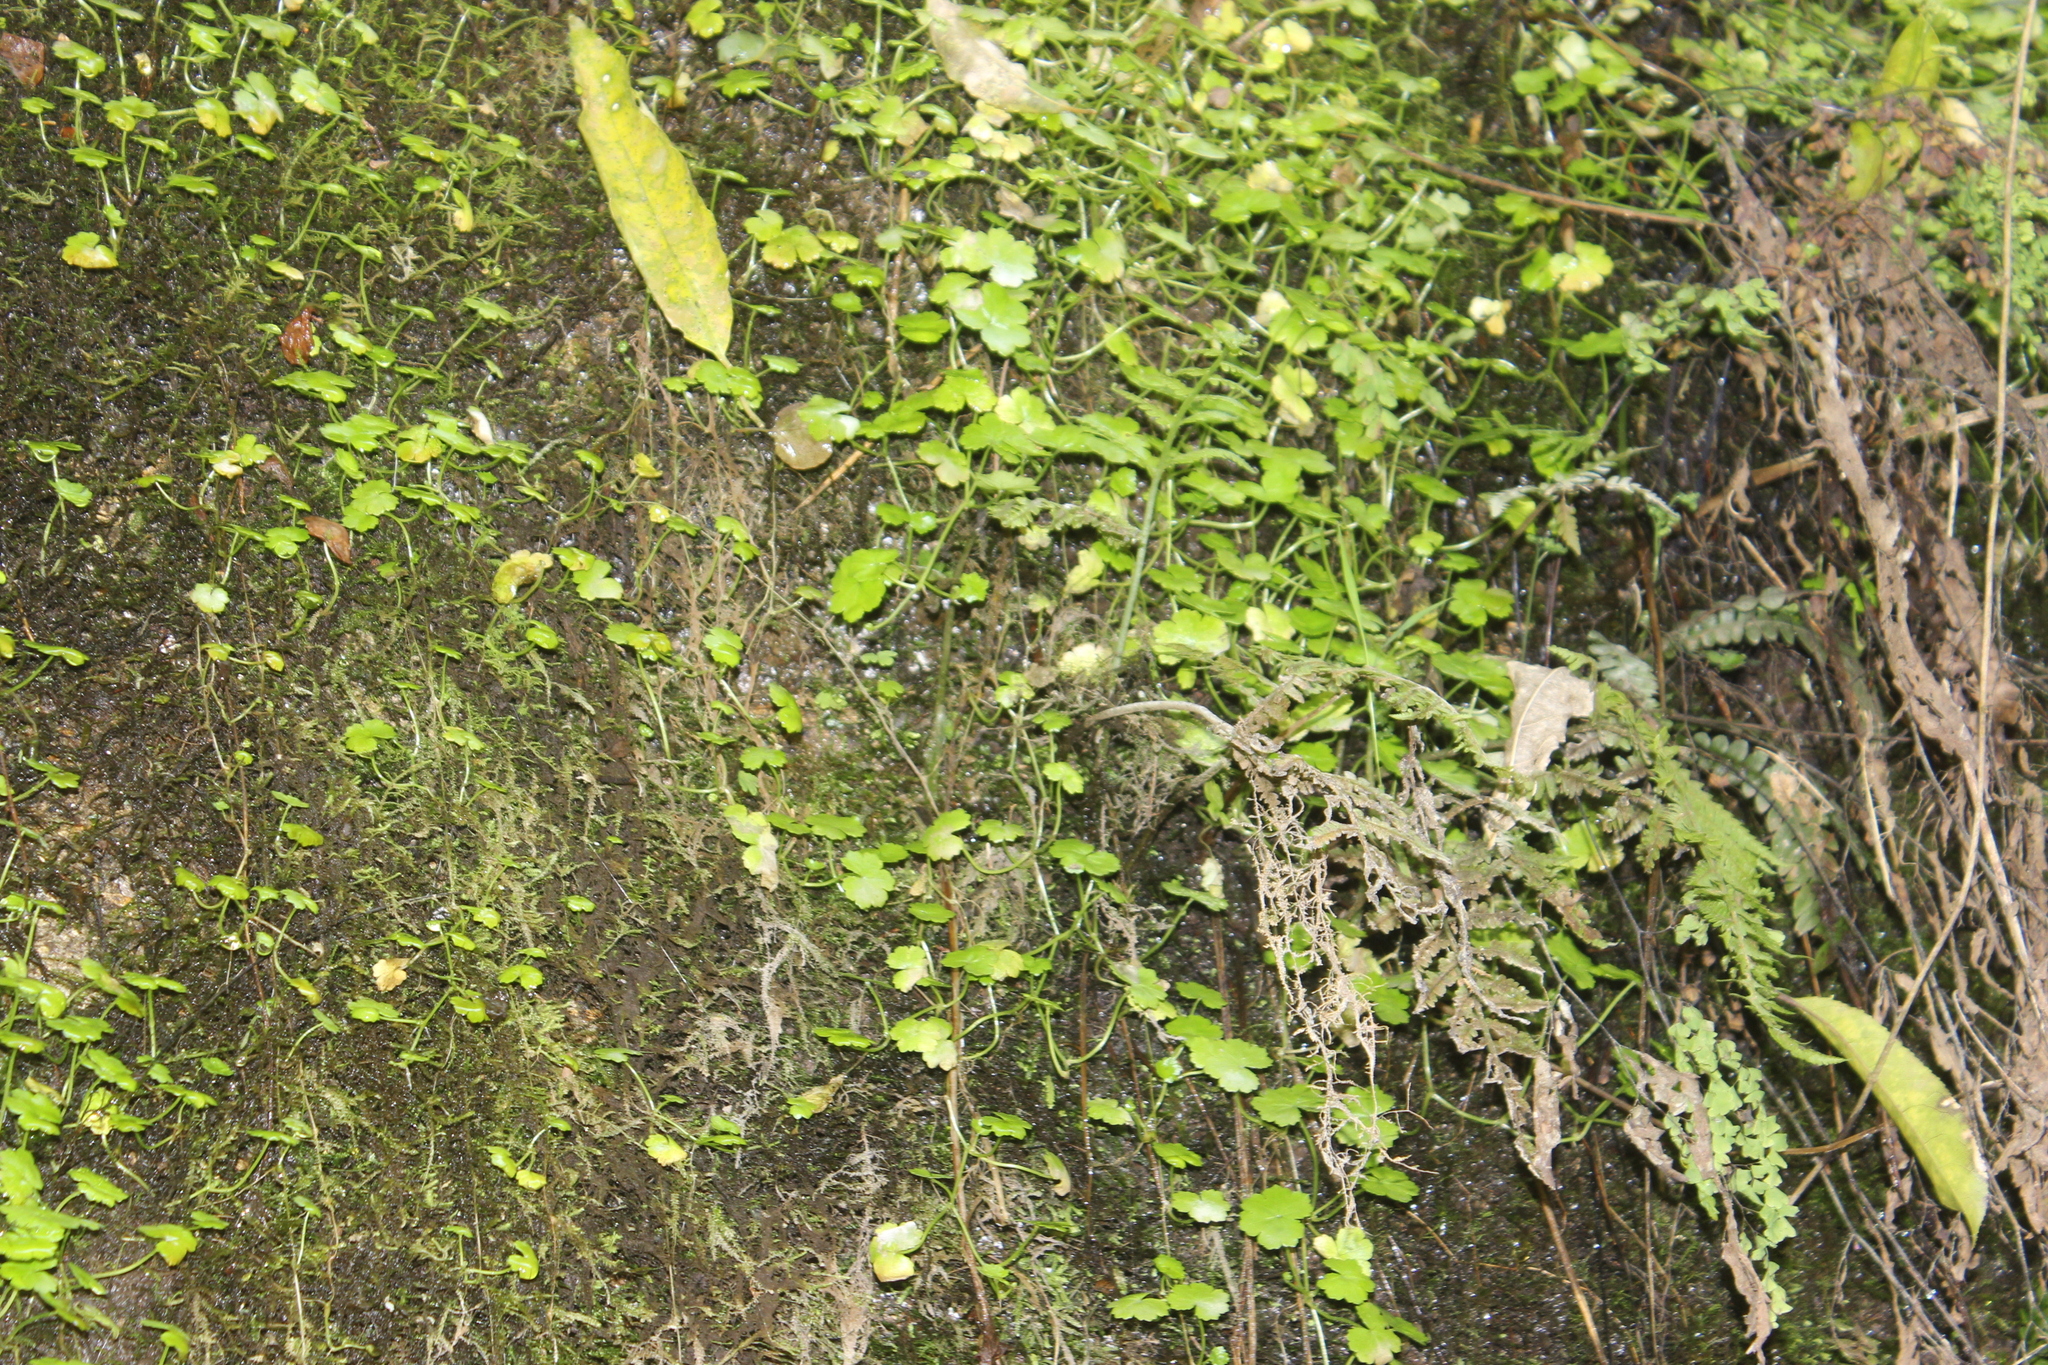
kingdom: Plantae
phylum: Tracheophyta
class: Magnoliopsida
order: Apiales
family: Araliaceae
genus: Hydrocotyle
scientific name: Hydrocotyle heteromeria
